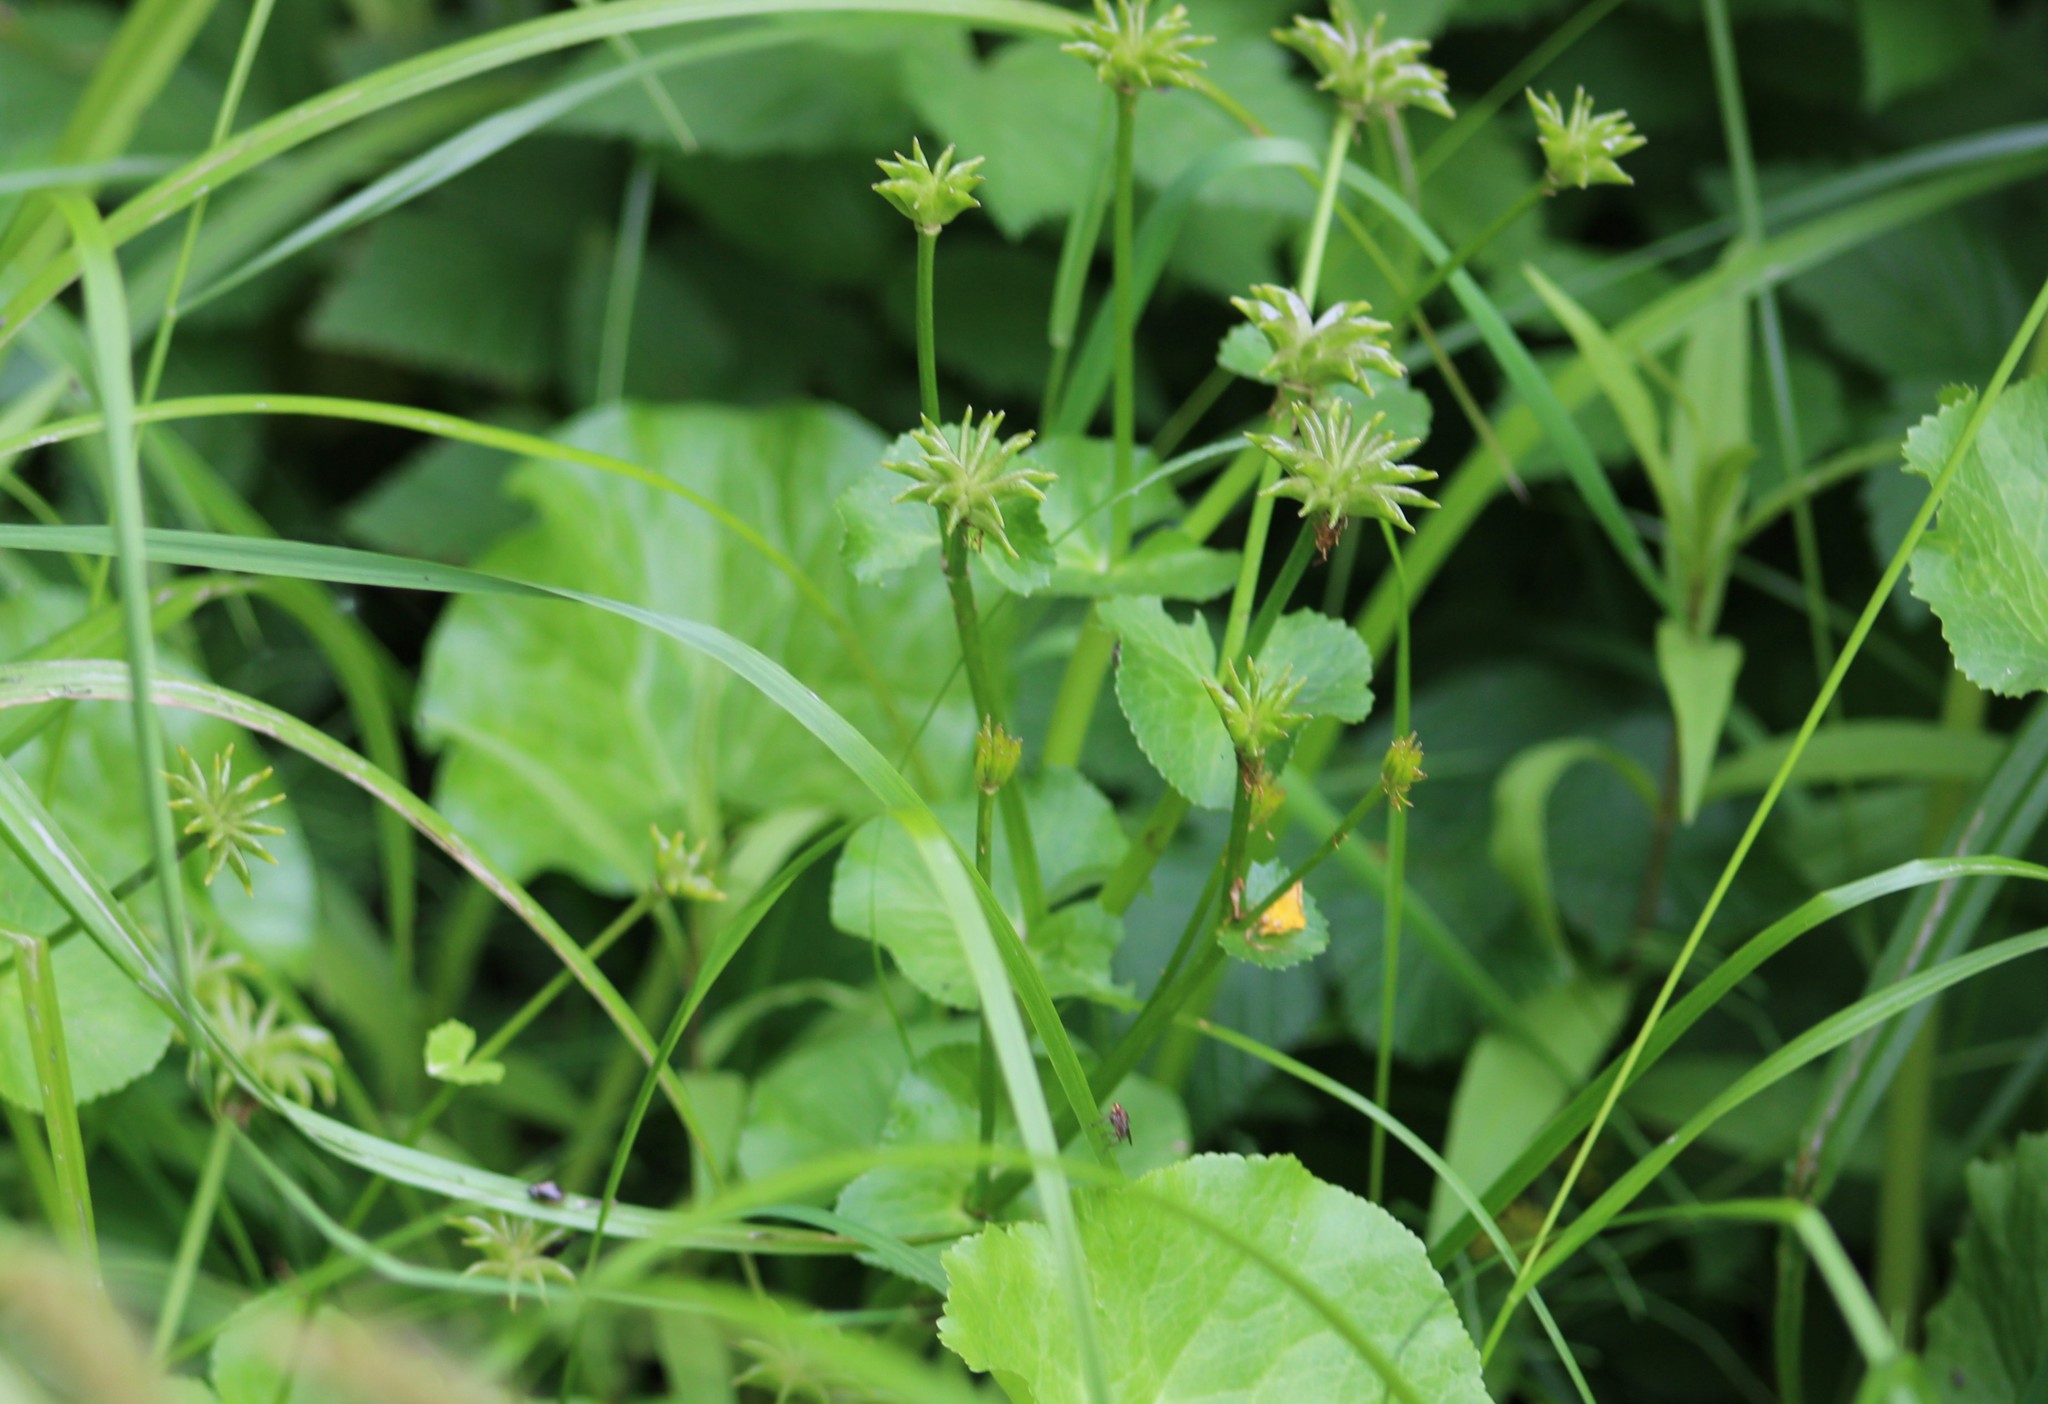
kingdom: Plantae
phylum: Tracheophyta
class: Magnoliopsida
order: Ranunculales
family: Ranunculaceae
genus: Caltha
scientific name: Caltha palustris
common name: Marsh marigold
